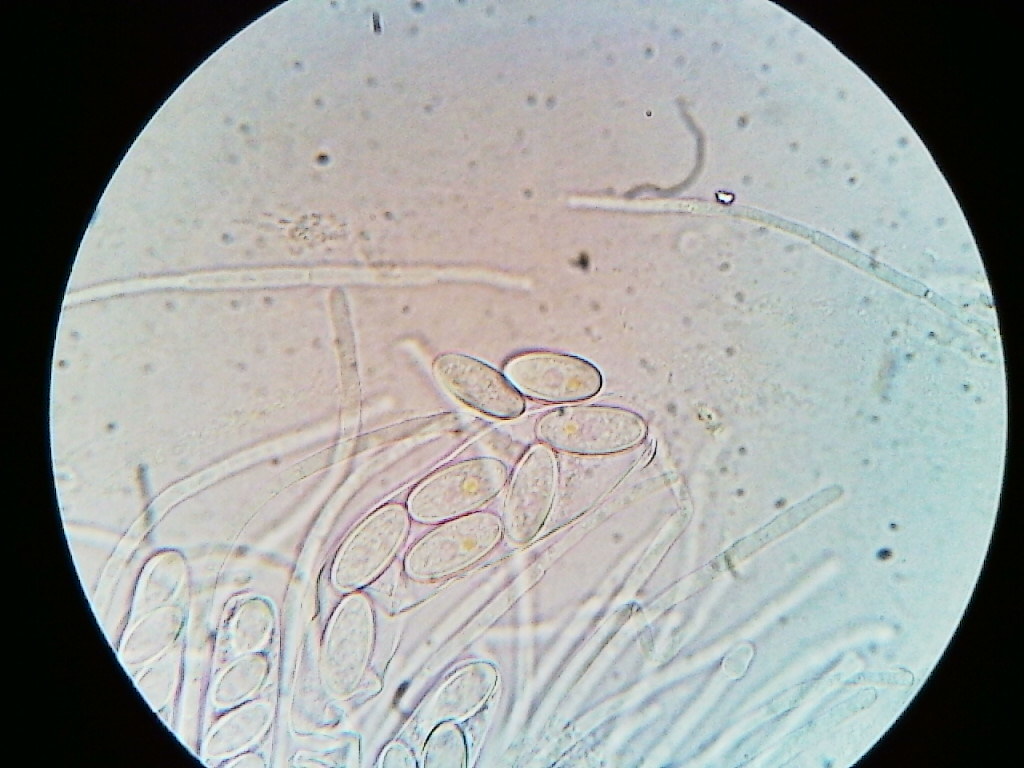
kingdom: Fungi
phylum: Ascomycota
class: Pezizomycetes
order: Pezizales
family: Ascobolaceae
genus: Ascobolus
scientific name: Ascobolus crenulatus
